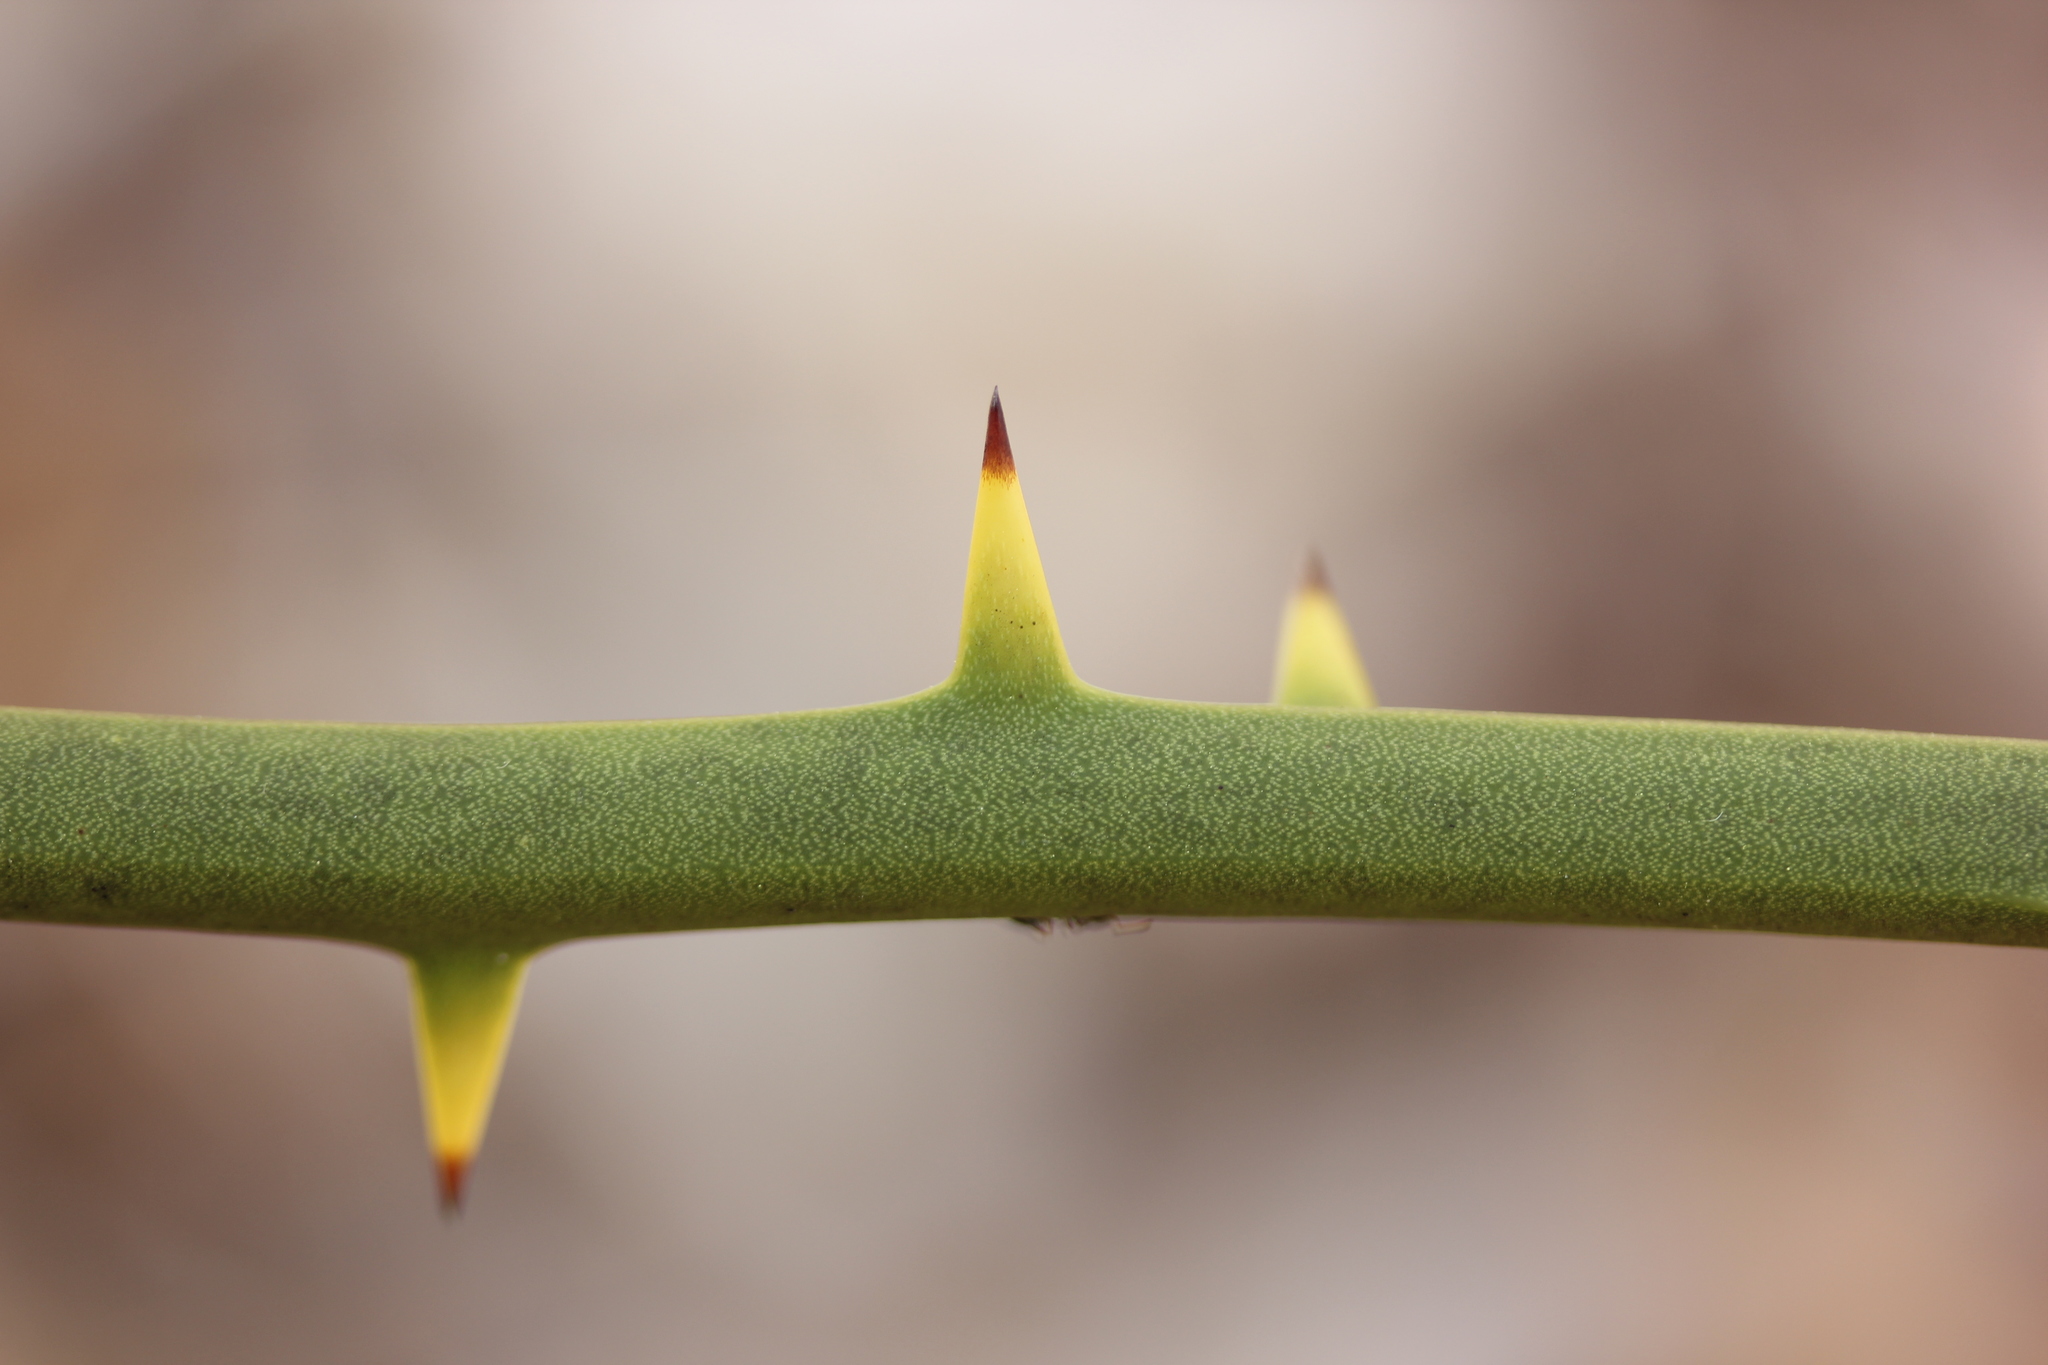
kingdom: Plantae
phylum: Tracheophyta
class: Liliopsida
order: Liliales
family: Smilacaceae
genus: Smilax
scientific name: Smilax rotundifolia
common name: Bullbriar
